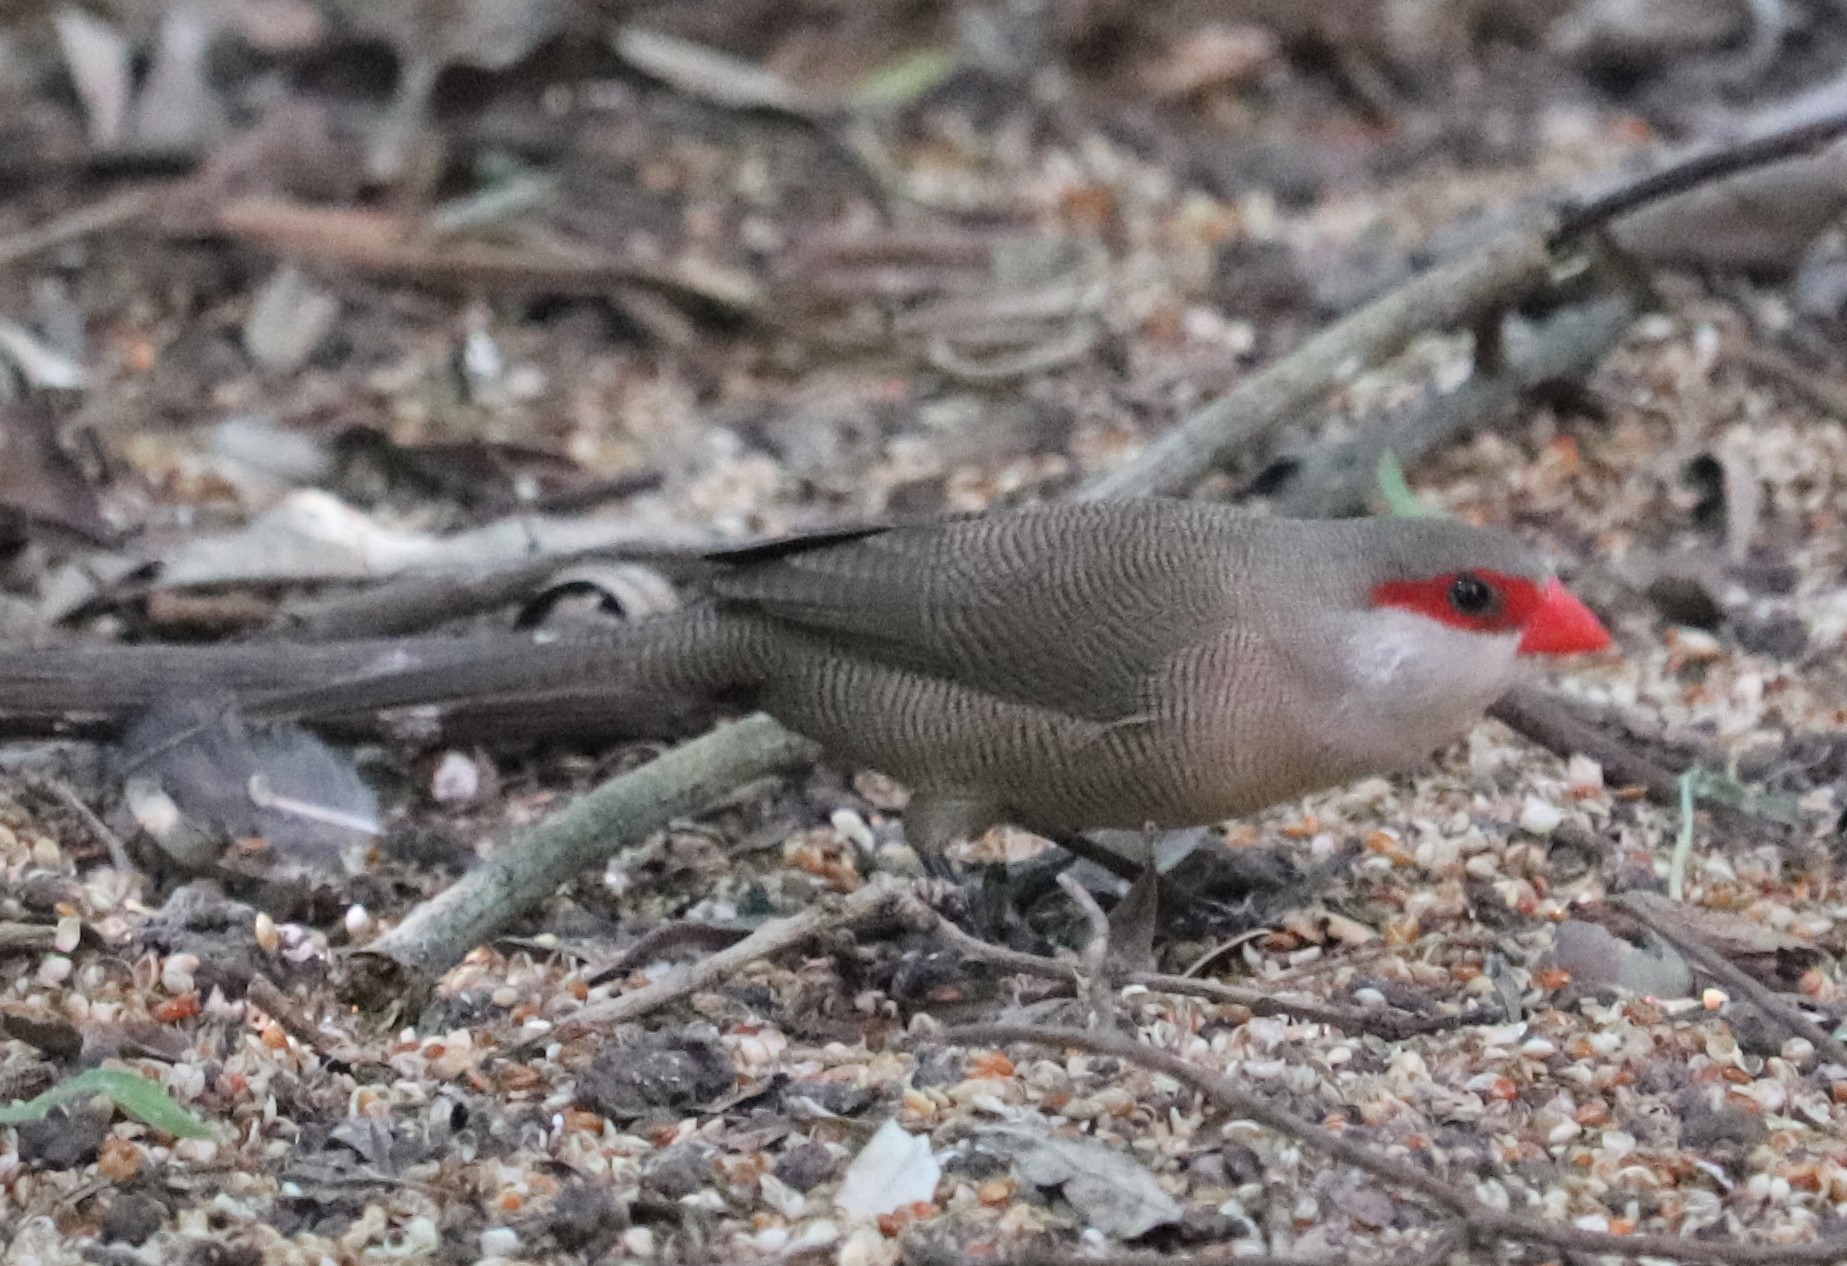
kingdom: Animalia
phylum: Chordata
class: Aves
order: Passeriformes
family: Estrildidae
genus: Estrilda
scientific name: Estrilda astrild
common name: Common waxbill
